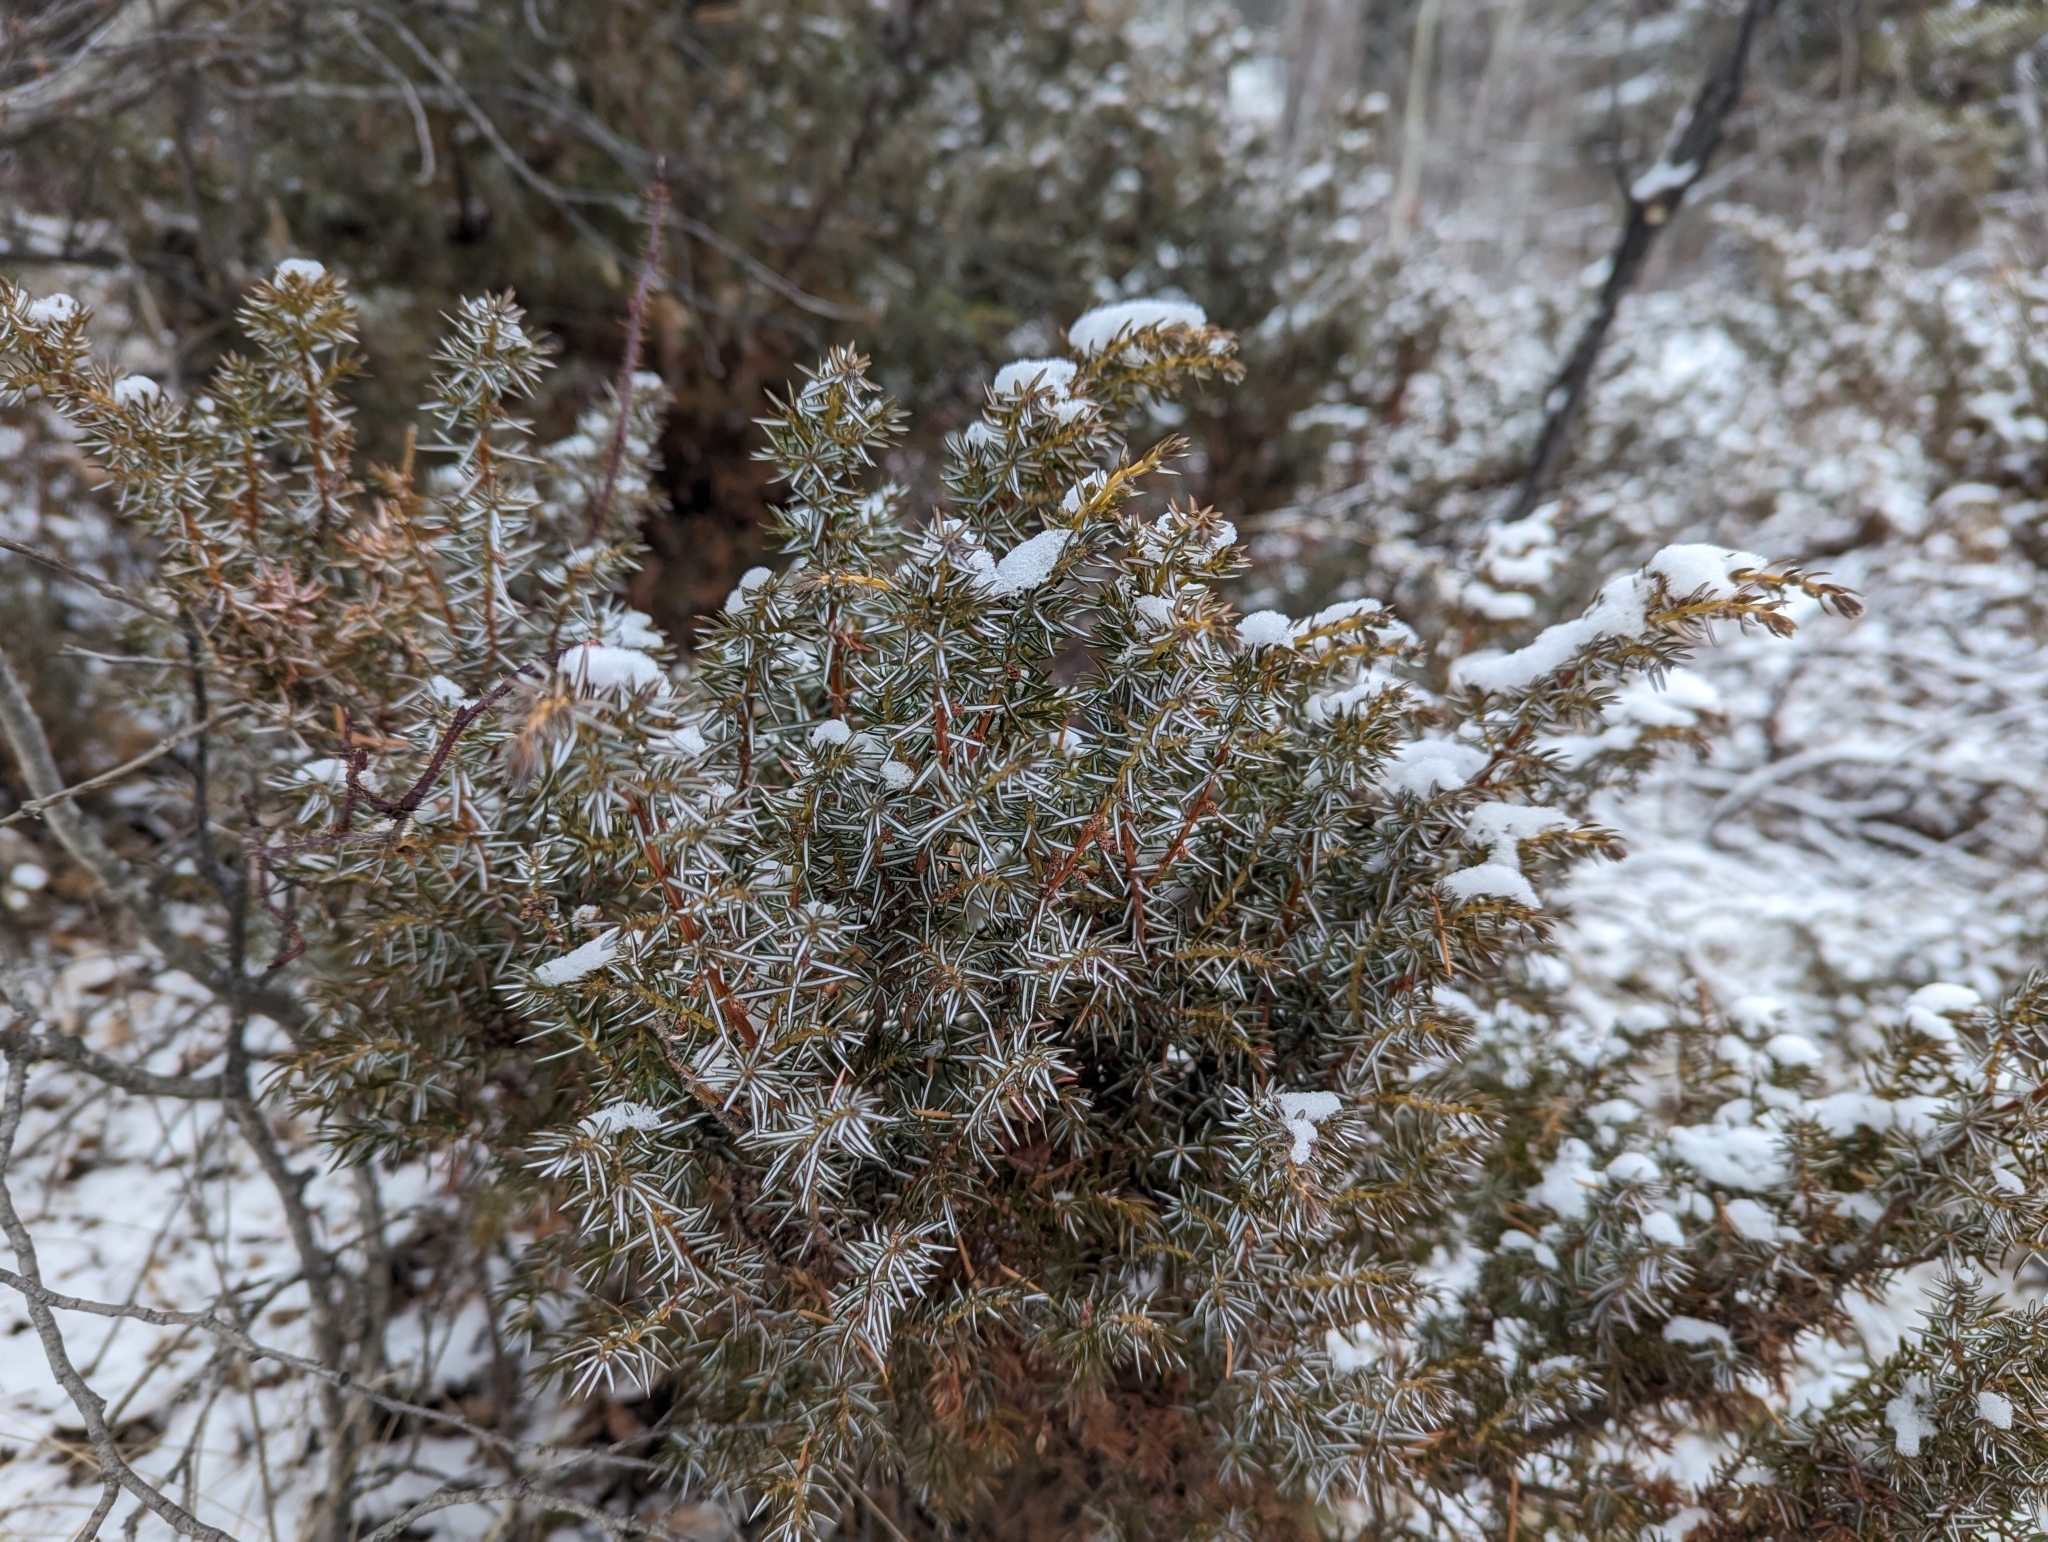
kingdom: Plantae
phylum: Tracheophyta
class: Pinopsida
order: Pinales
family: Cupressaceae
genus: Juniperus
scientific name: Juniperus communis
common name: Common juniper
